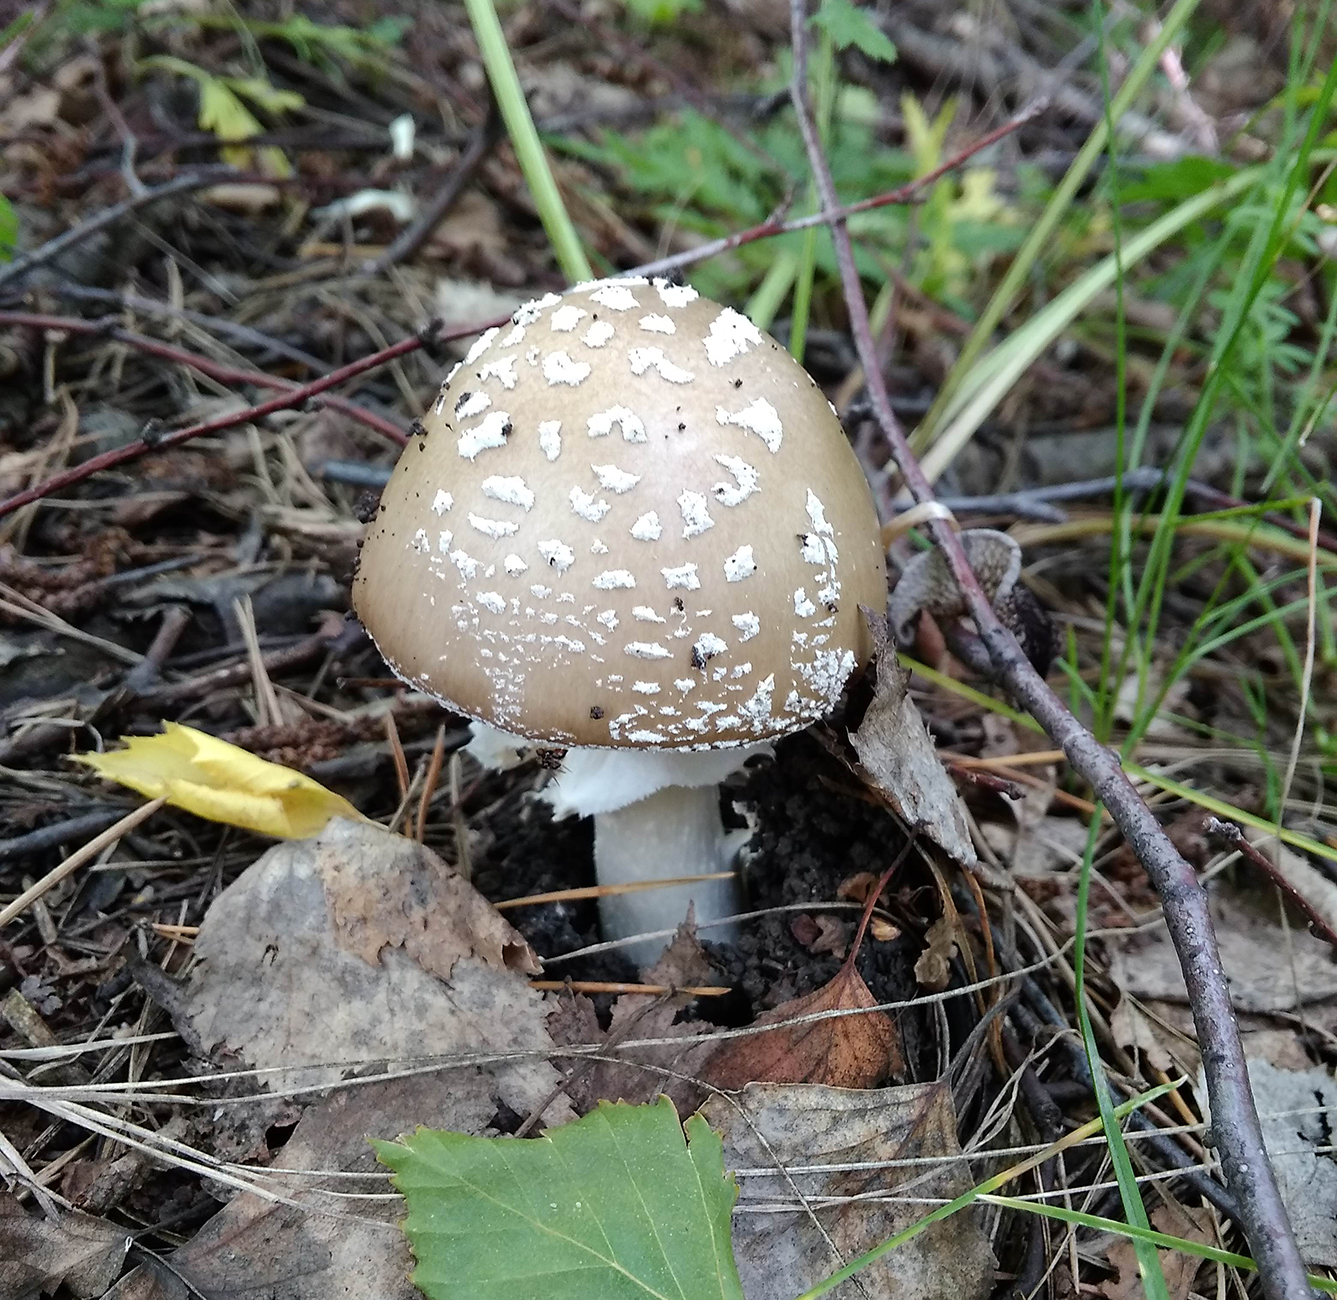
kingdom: Fungi
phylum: Basidiomycota
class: Agaricomycetes
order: Agaricales
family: Amanitaceae
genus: Amanita
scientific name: Amanita pantherina
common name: Panthercap
